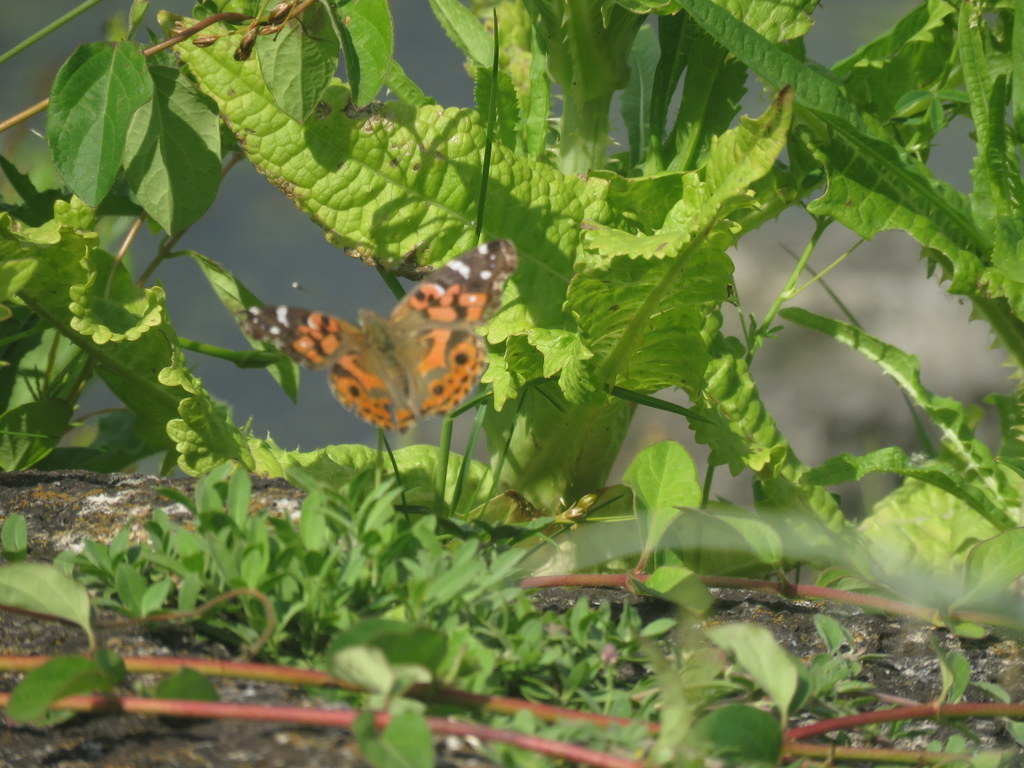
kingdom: Animalia
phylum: Arthropoda
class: Insecta
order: Lepidoptera
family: Nymphalidae
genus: Vanessa
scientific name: Vanessa braziliensis
